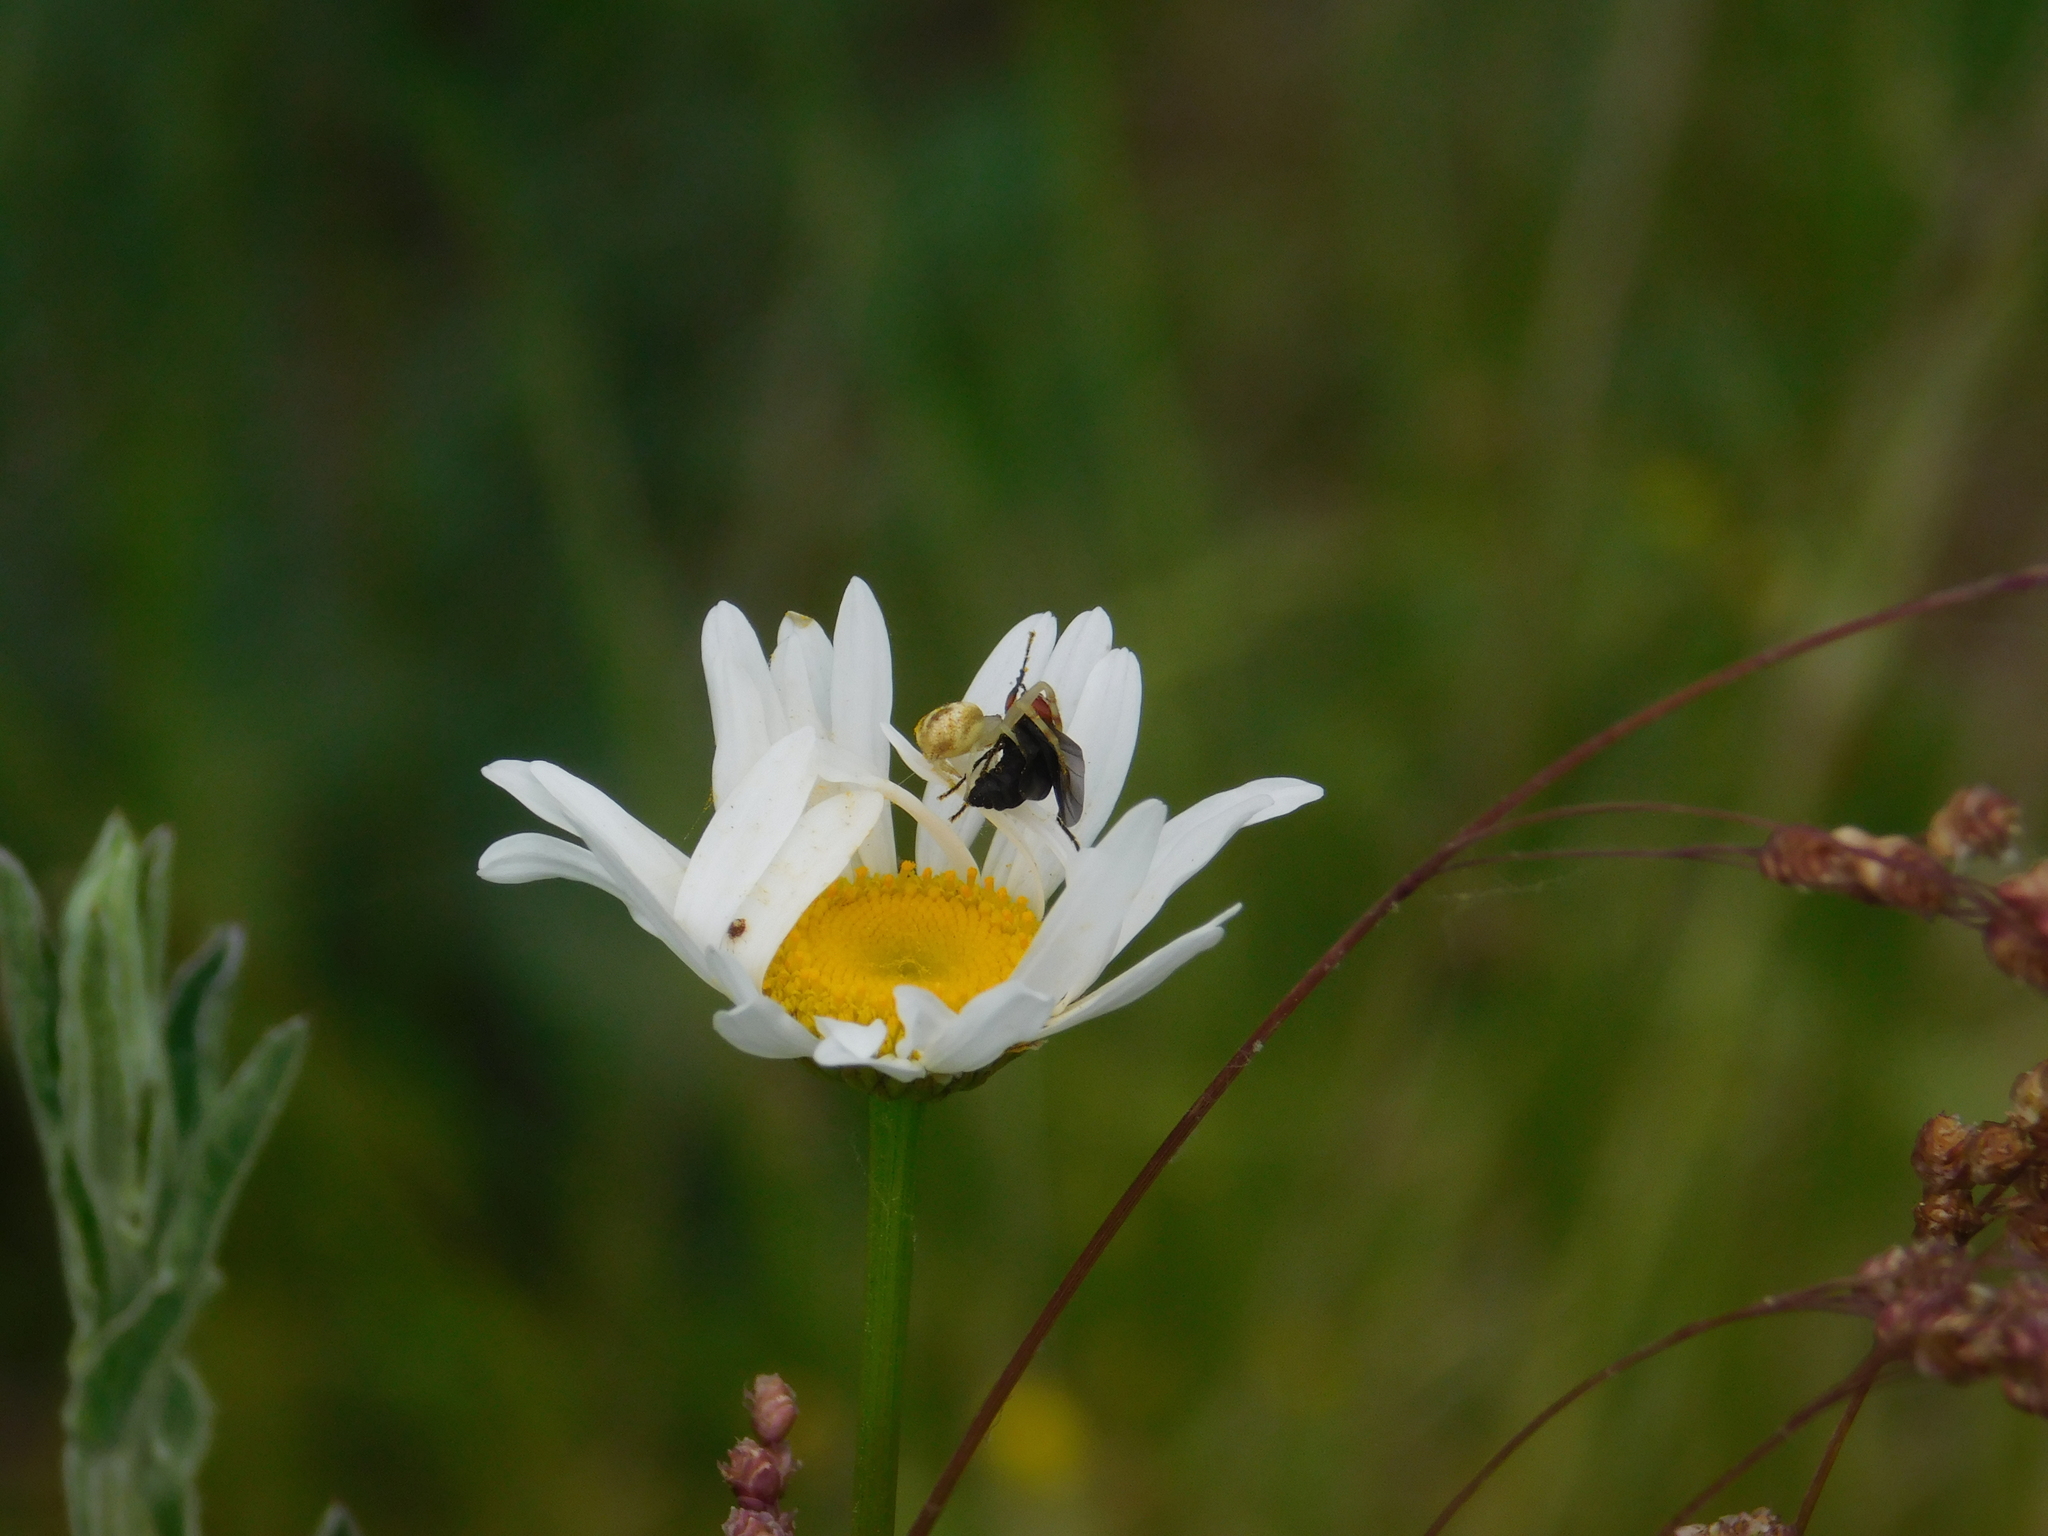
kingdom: Animalia
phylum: Arthropoda
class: Arachnida
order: Araneae
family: Thomisidae
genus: Misumenops
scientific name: Misumenops
